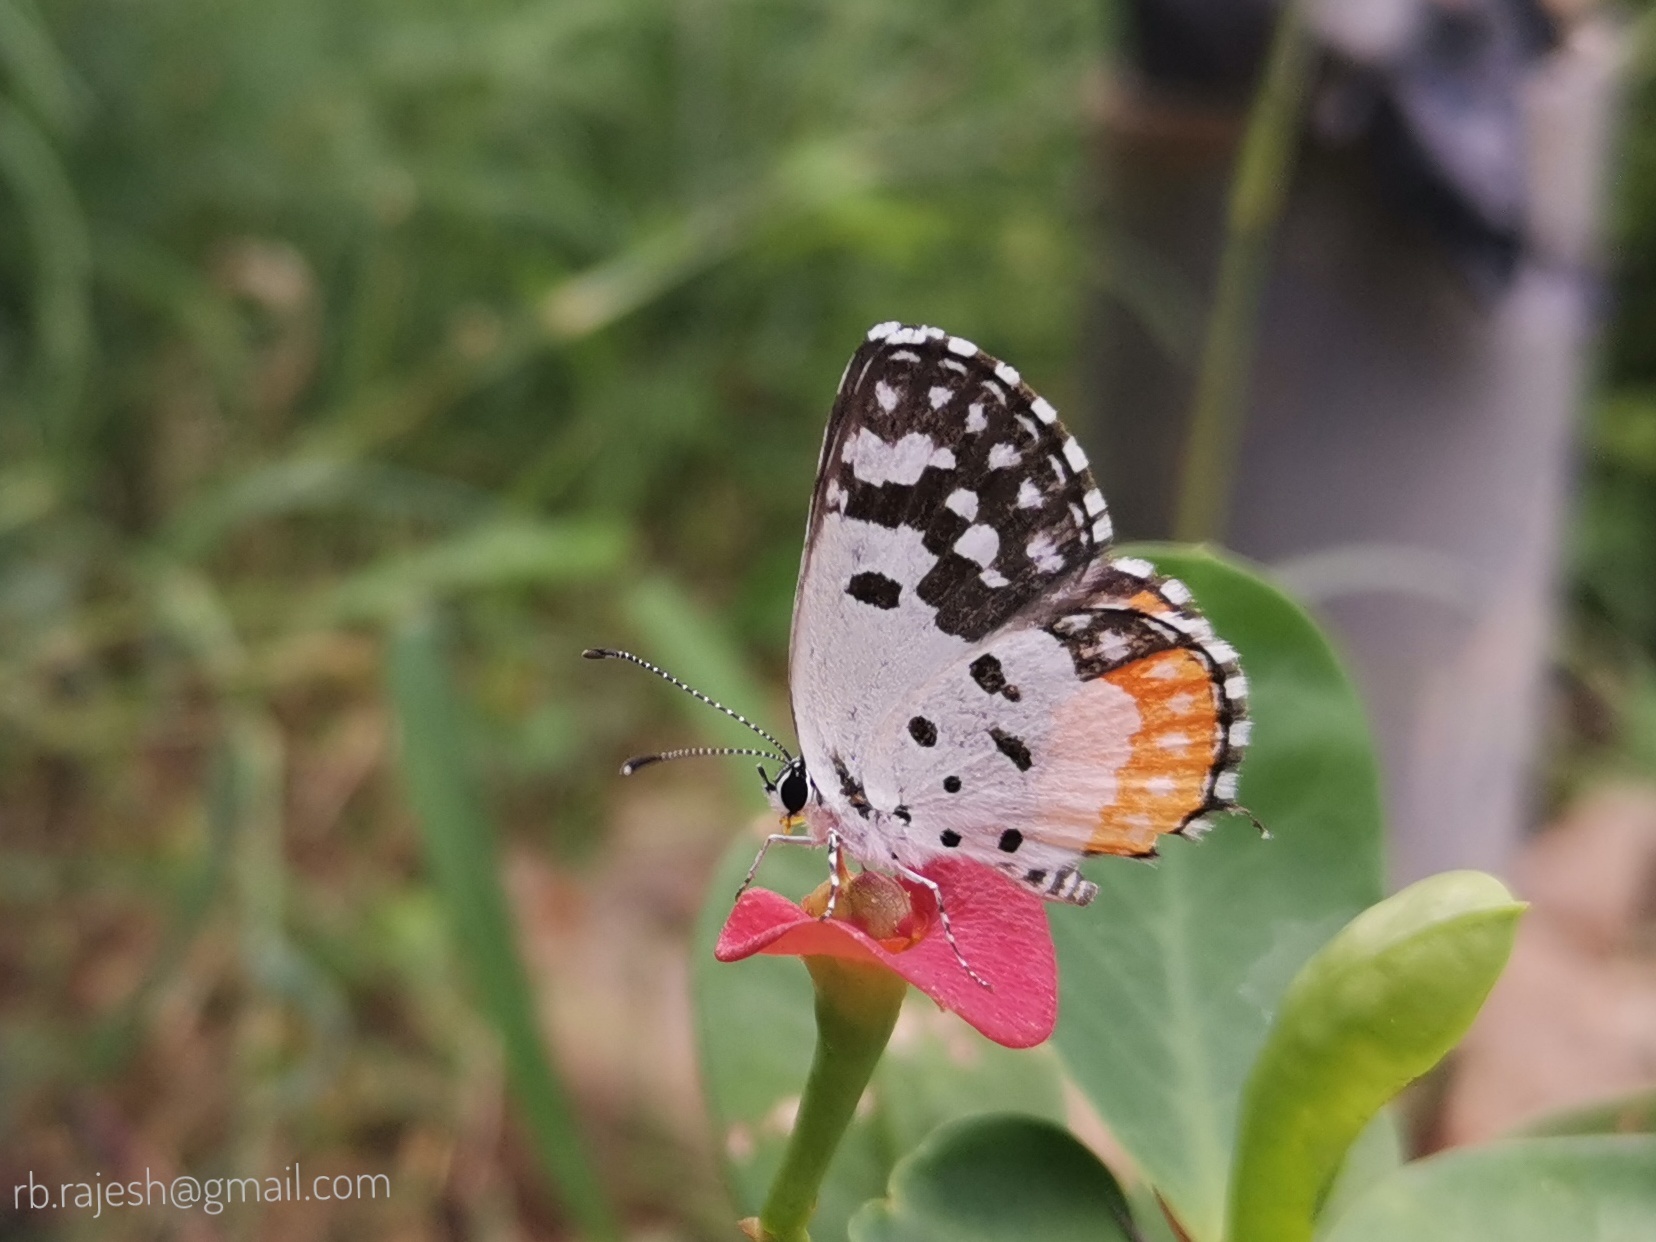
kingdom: Animalia
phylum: Arthropoda
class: Insecta
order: Lepidoptera
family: Lycaenidae
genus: Talicada
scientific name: Talicada nyseus
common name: Red pierrot
